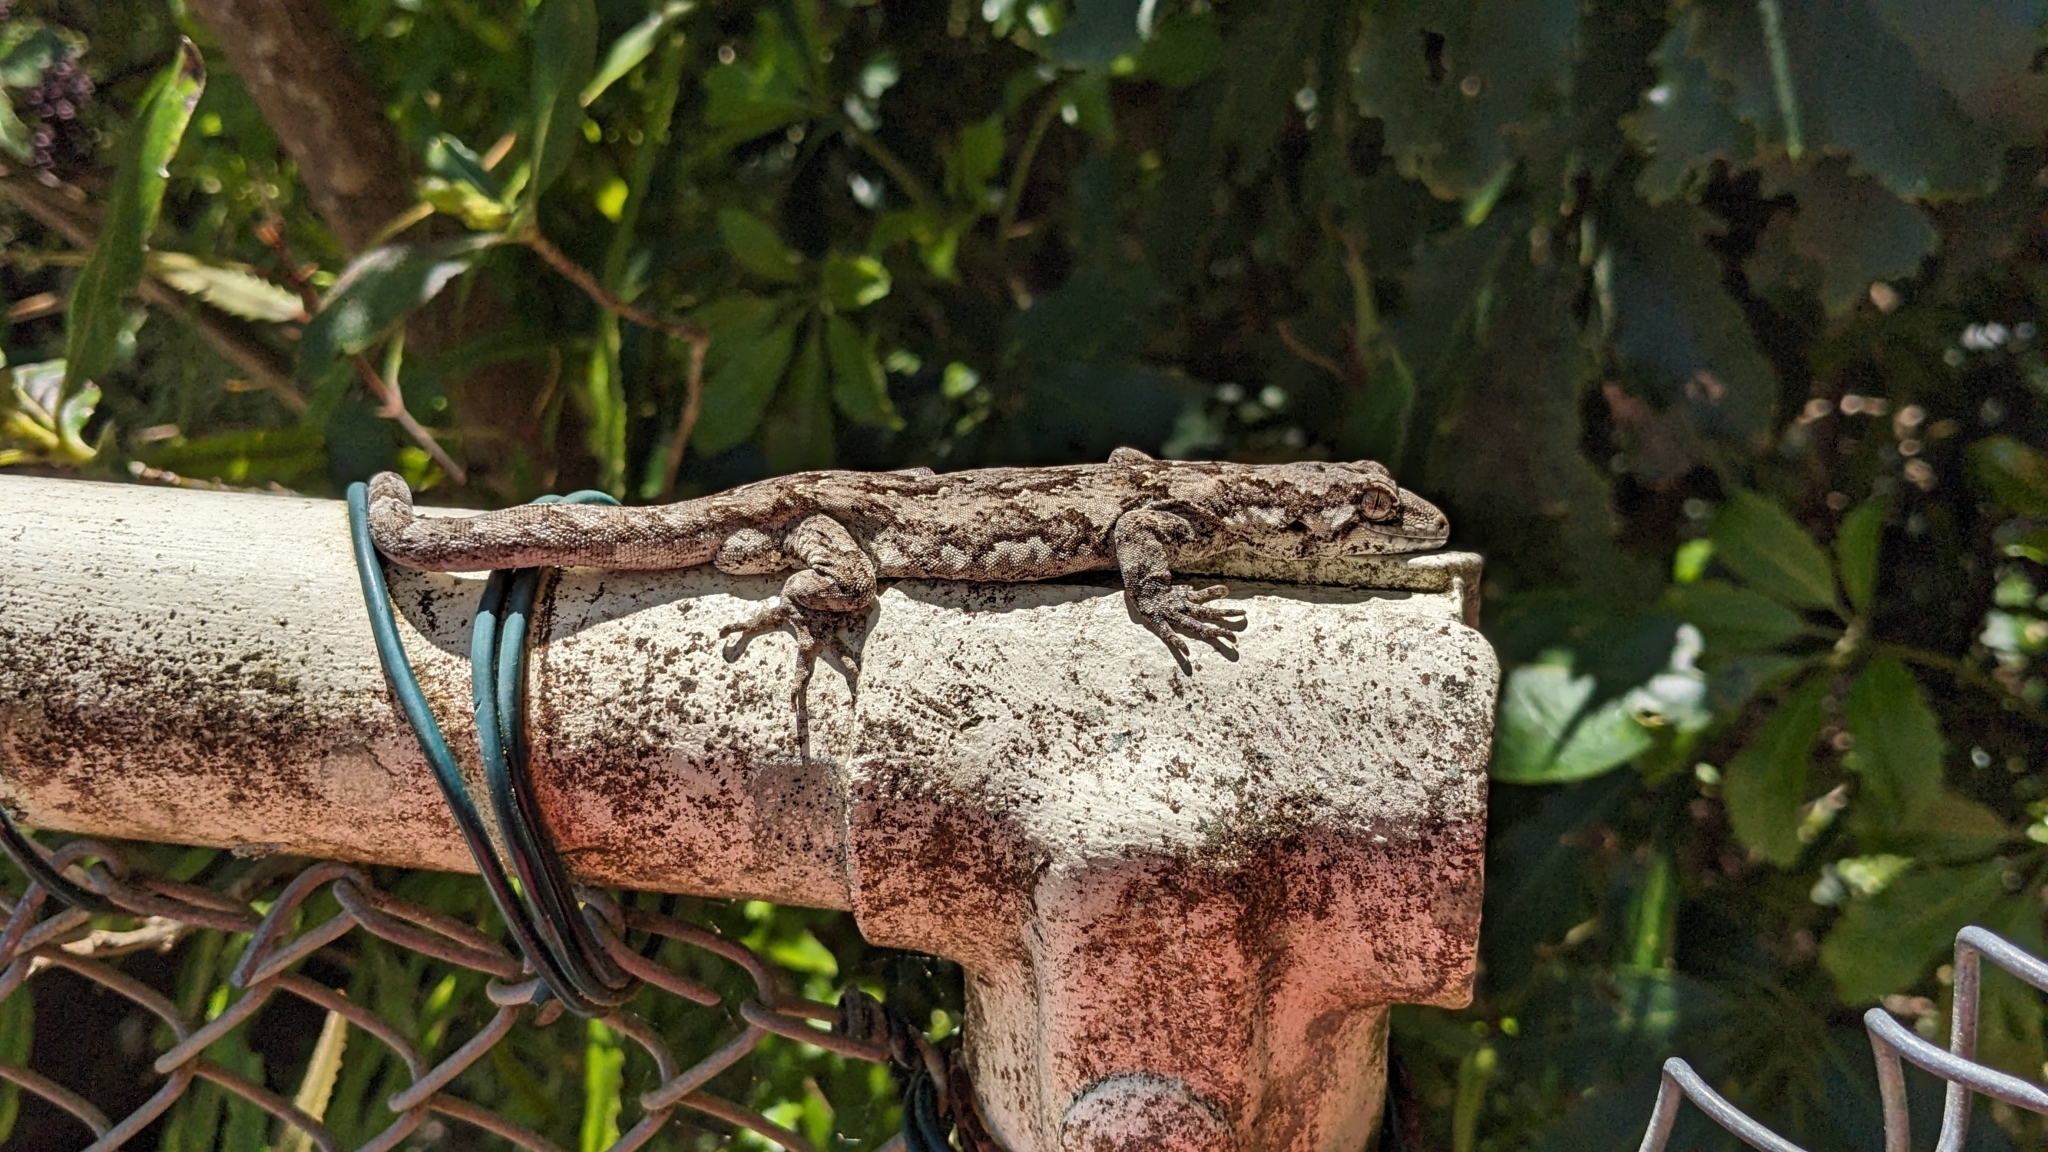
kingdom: Animalia
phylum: Chordata
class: Squamata
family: Diplodactylidae
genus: Mokopirirakau
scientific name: Mokopirirakau
